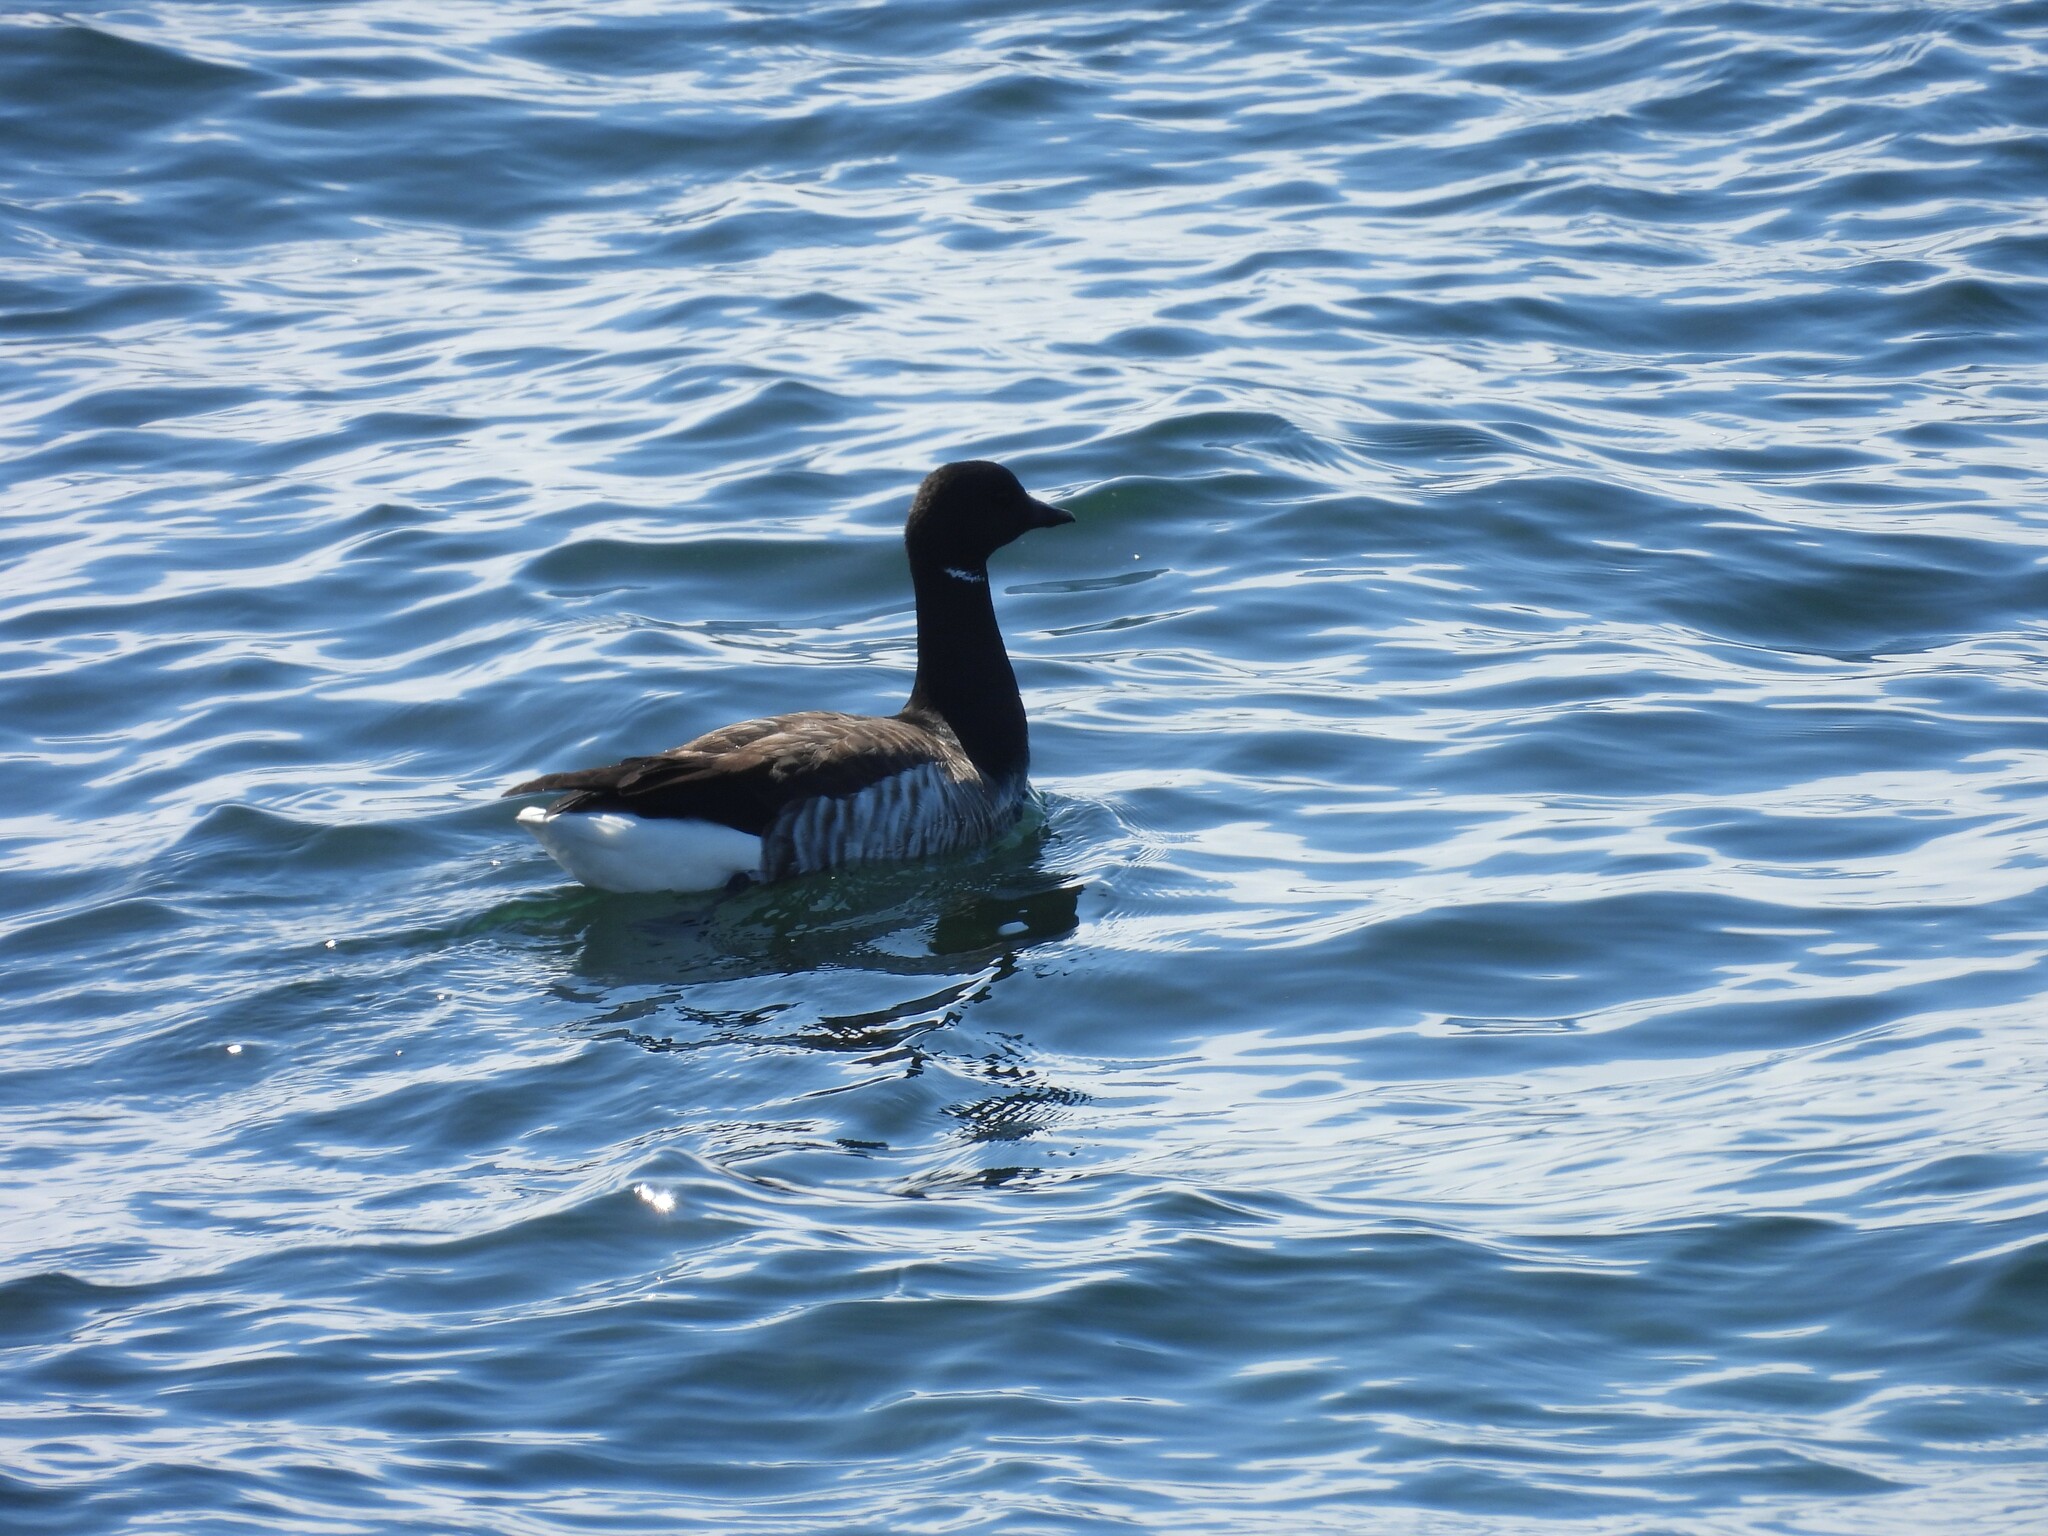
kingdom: Animalia
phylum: Chordata
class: Aves
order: Anseriformes
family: Anatidae
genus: Branta
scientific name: Branta bernicla
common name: Brant goose
